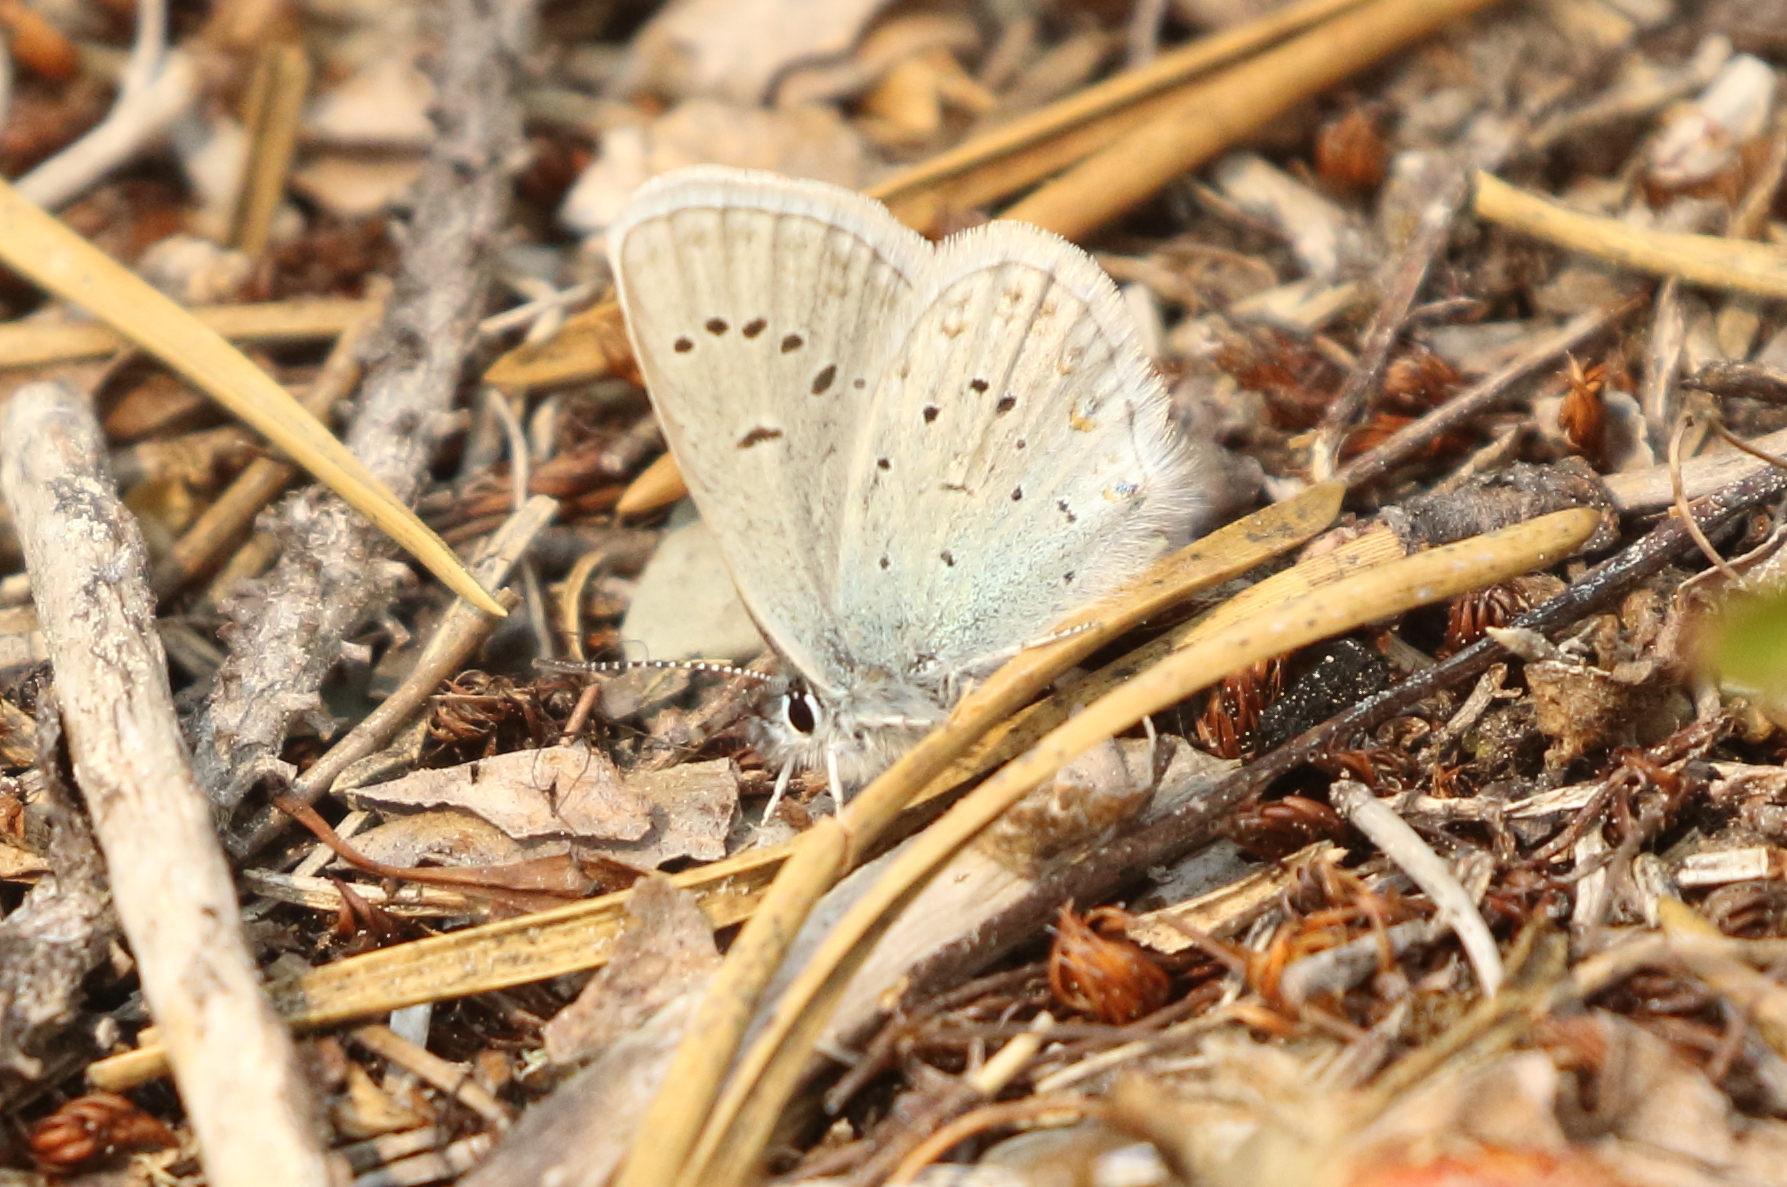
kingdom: Animalia
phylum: Arthropoda
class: Insecta
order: Lepidoptera
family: Lycaenidae
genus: Lycaeides
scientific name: Lycaeides anna
